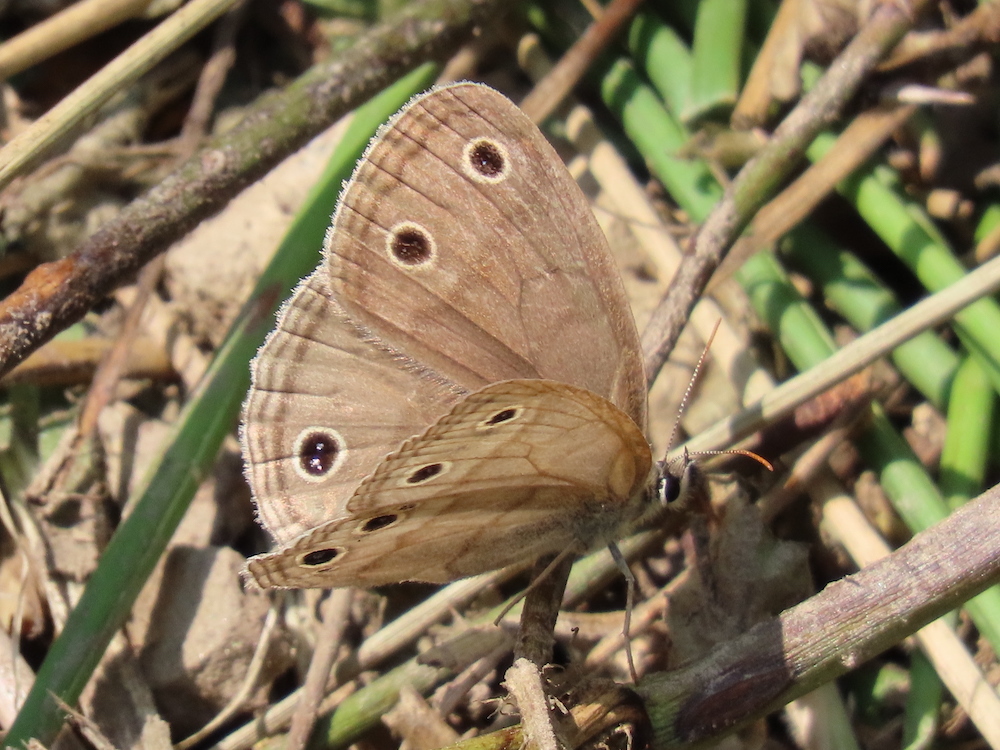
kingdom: Animalia
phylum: Arthropoda
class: Insecta
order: Lepidoptera
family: Nymphalidae
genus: Euptychia
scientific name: Euptychia cymela
